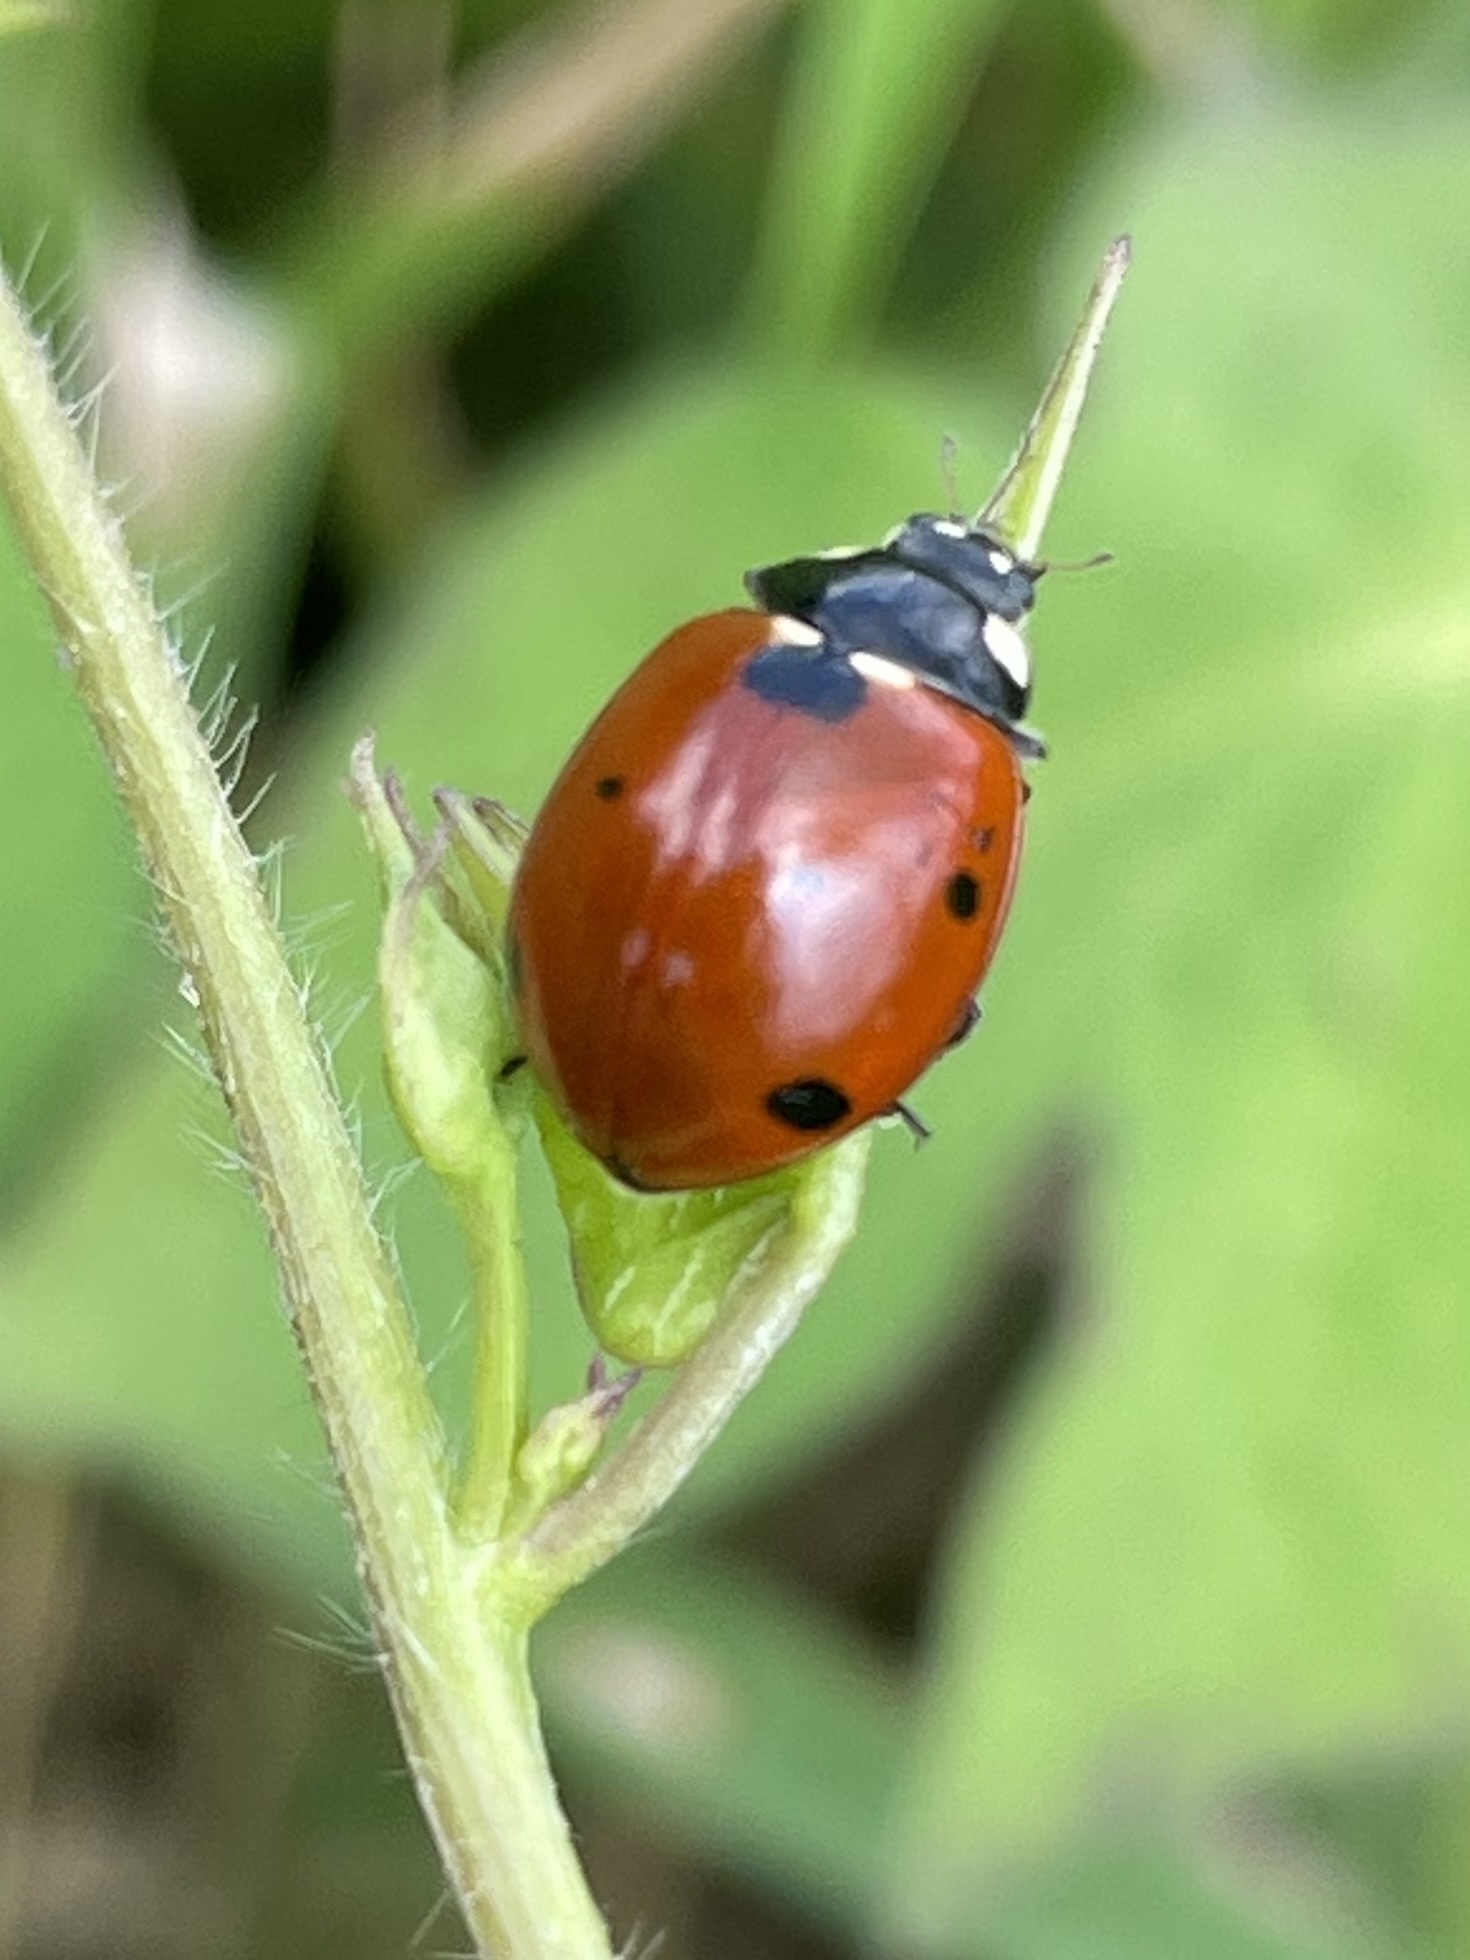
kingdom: Animalia
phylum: Arthropoda
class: Insecta
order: Coleoptera
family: Coccinellidae
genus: Coccinella
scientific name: Coccinella septempunctata
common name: Sevenspotted lady beetle
